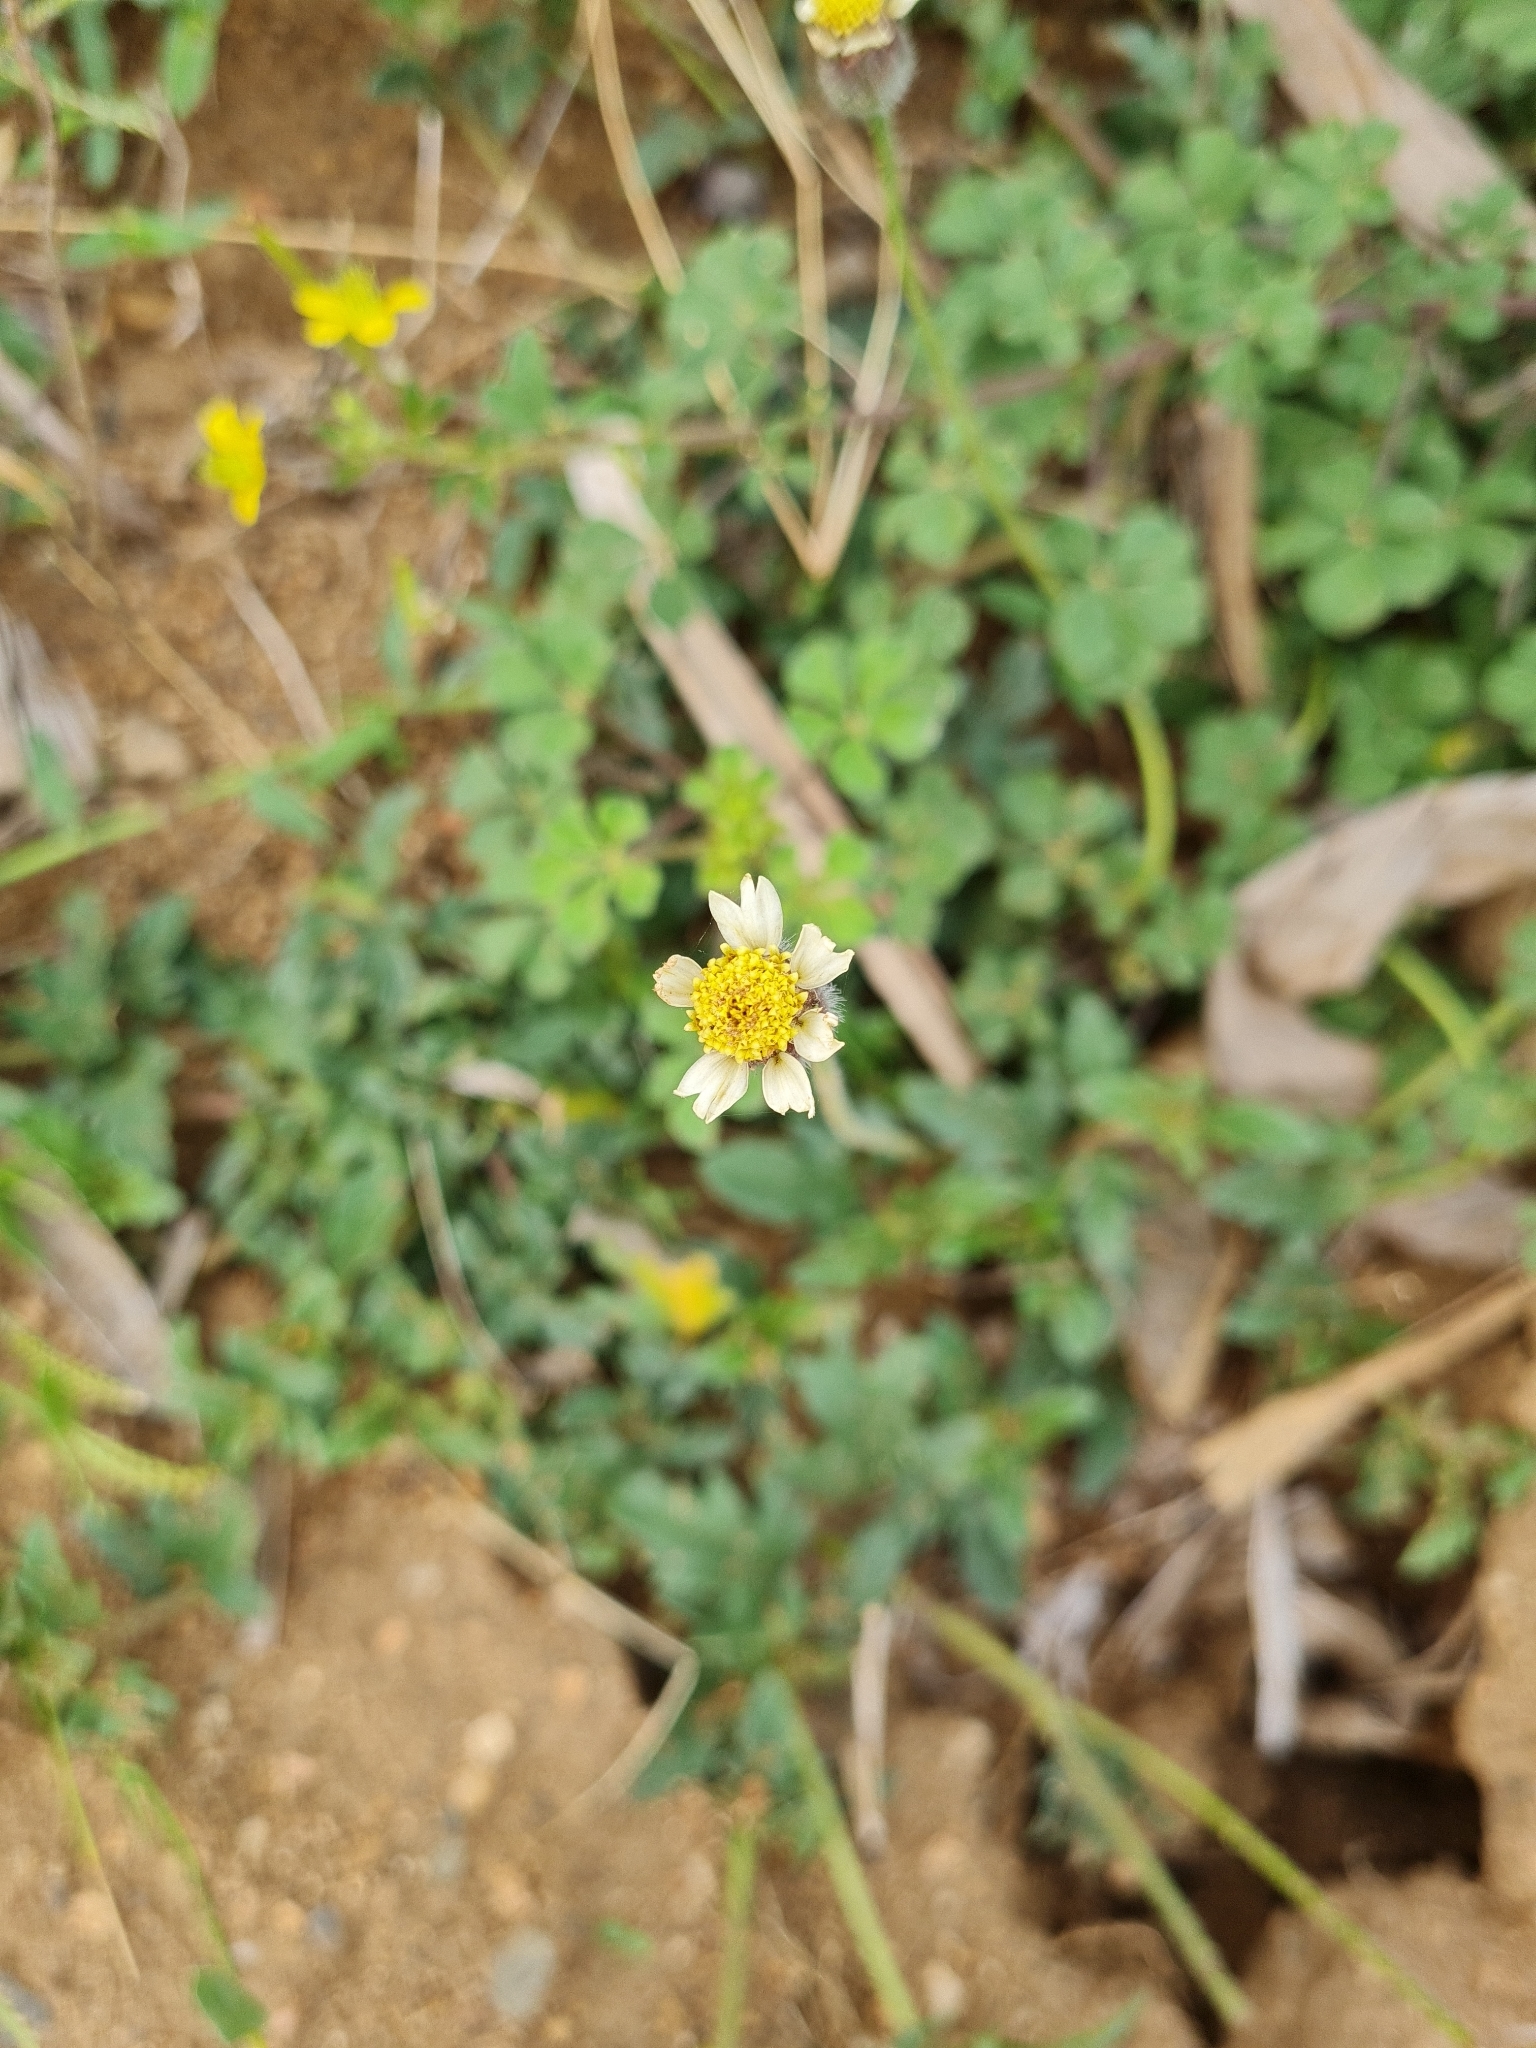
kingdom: Plantae
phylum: Tracheophyta
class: Magnoliopsida
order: Asterales
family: Asteraceae
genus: Tridax
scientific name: Tridax procumbens
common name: Coatbuttons
